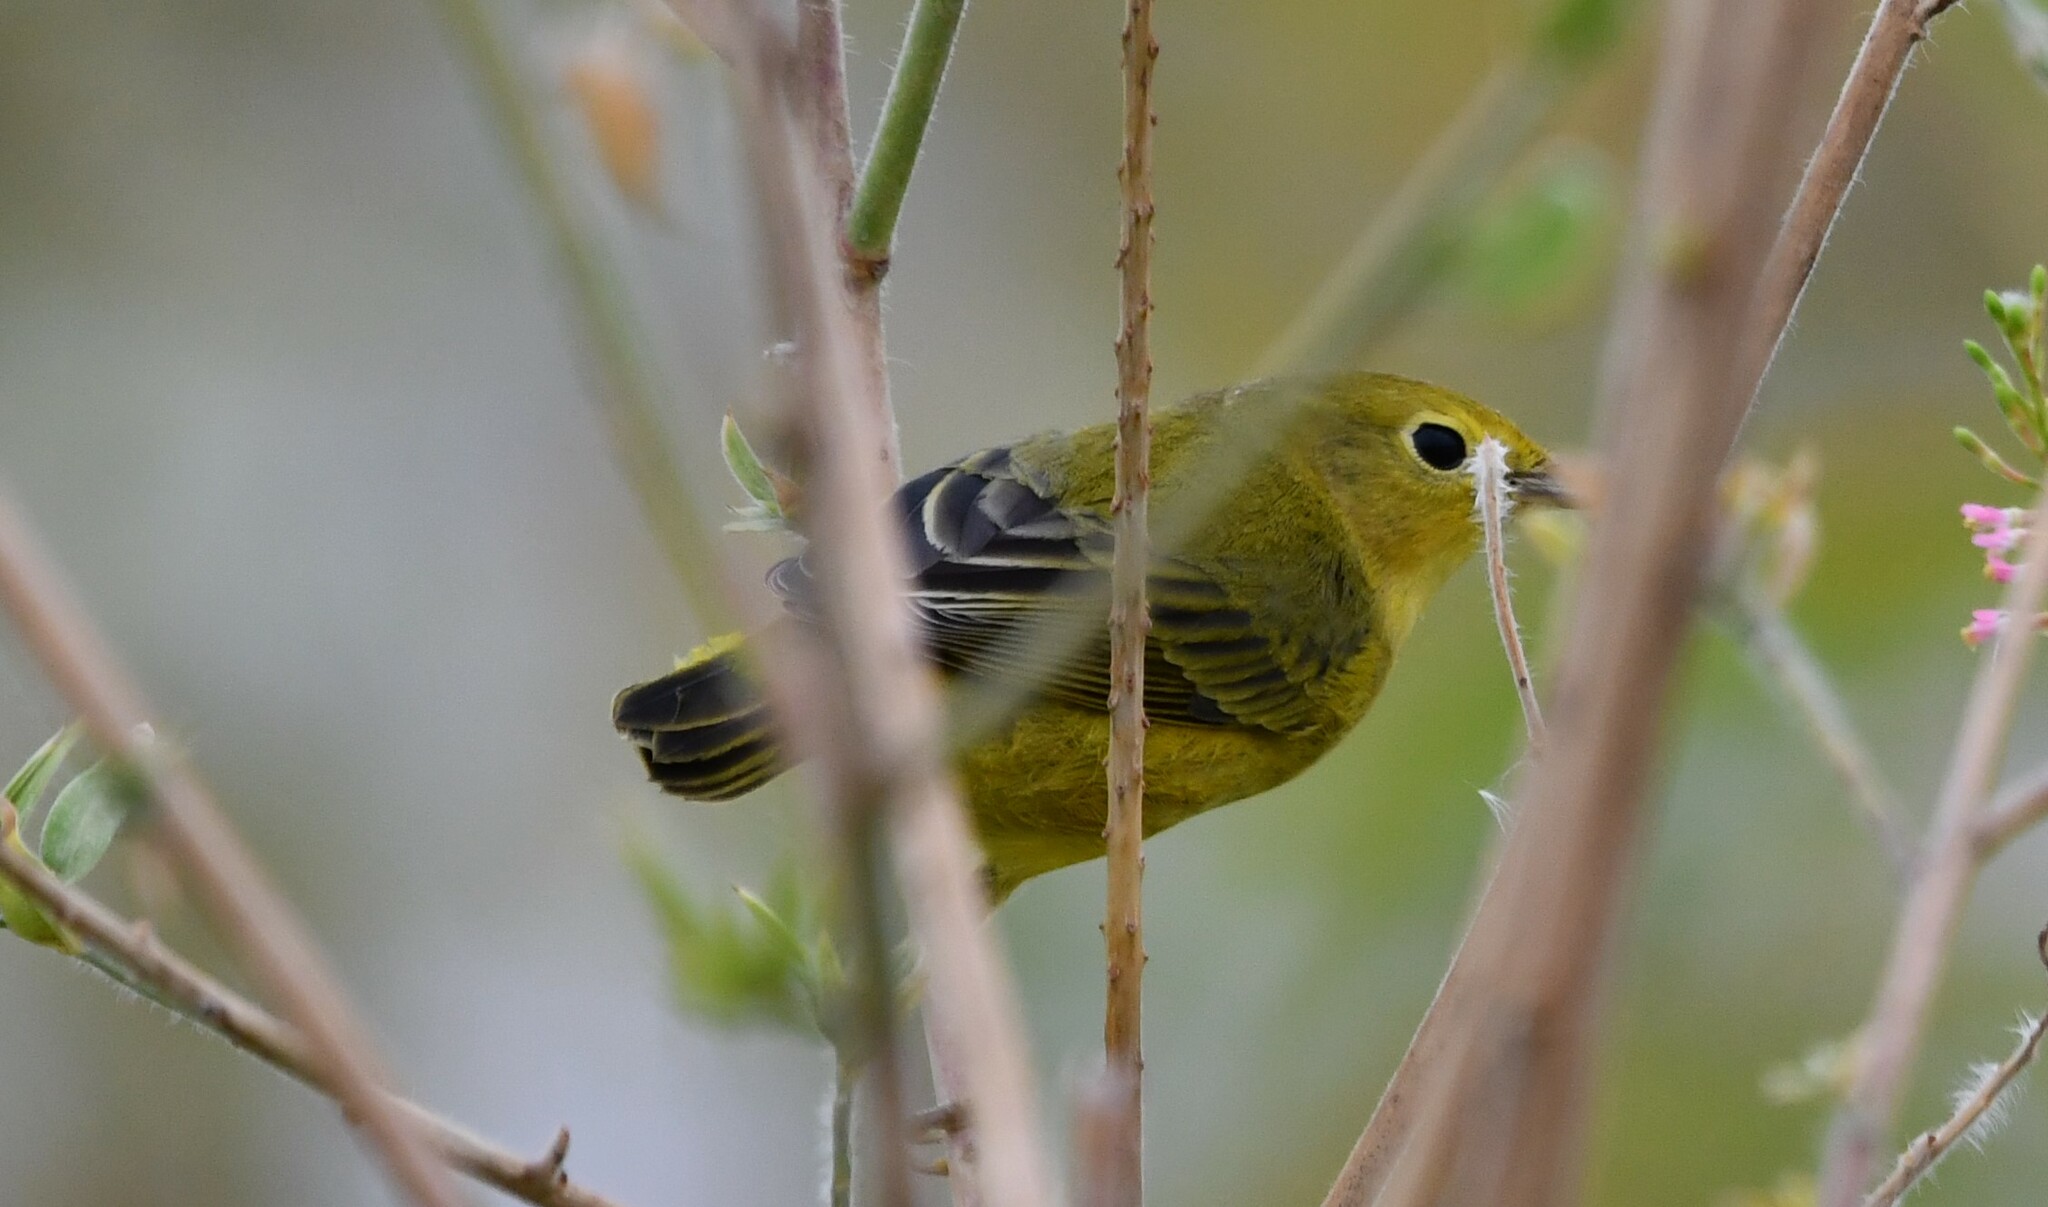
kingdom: Animalia
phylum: Chordata
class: Aves
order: Passeriformes
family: Parulidae
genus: Setophaga
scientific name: Setophaga petechia
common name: Yellow warbler
